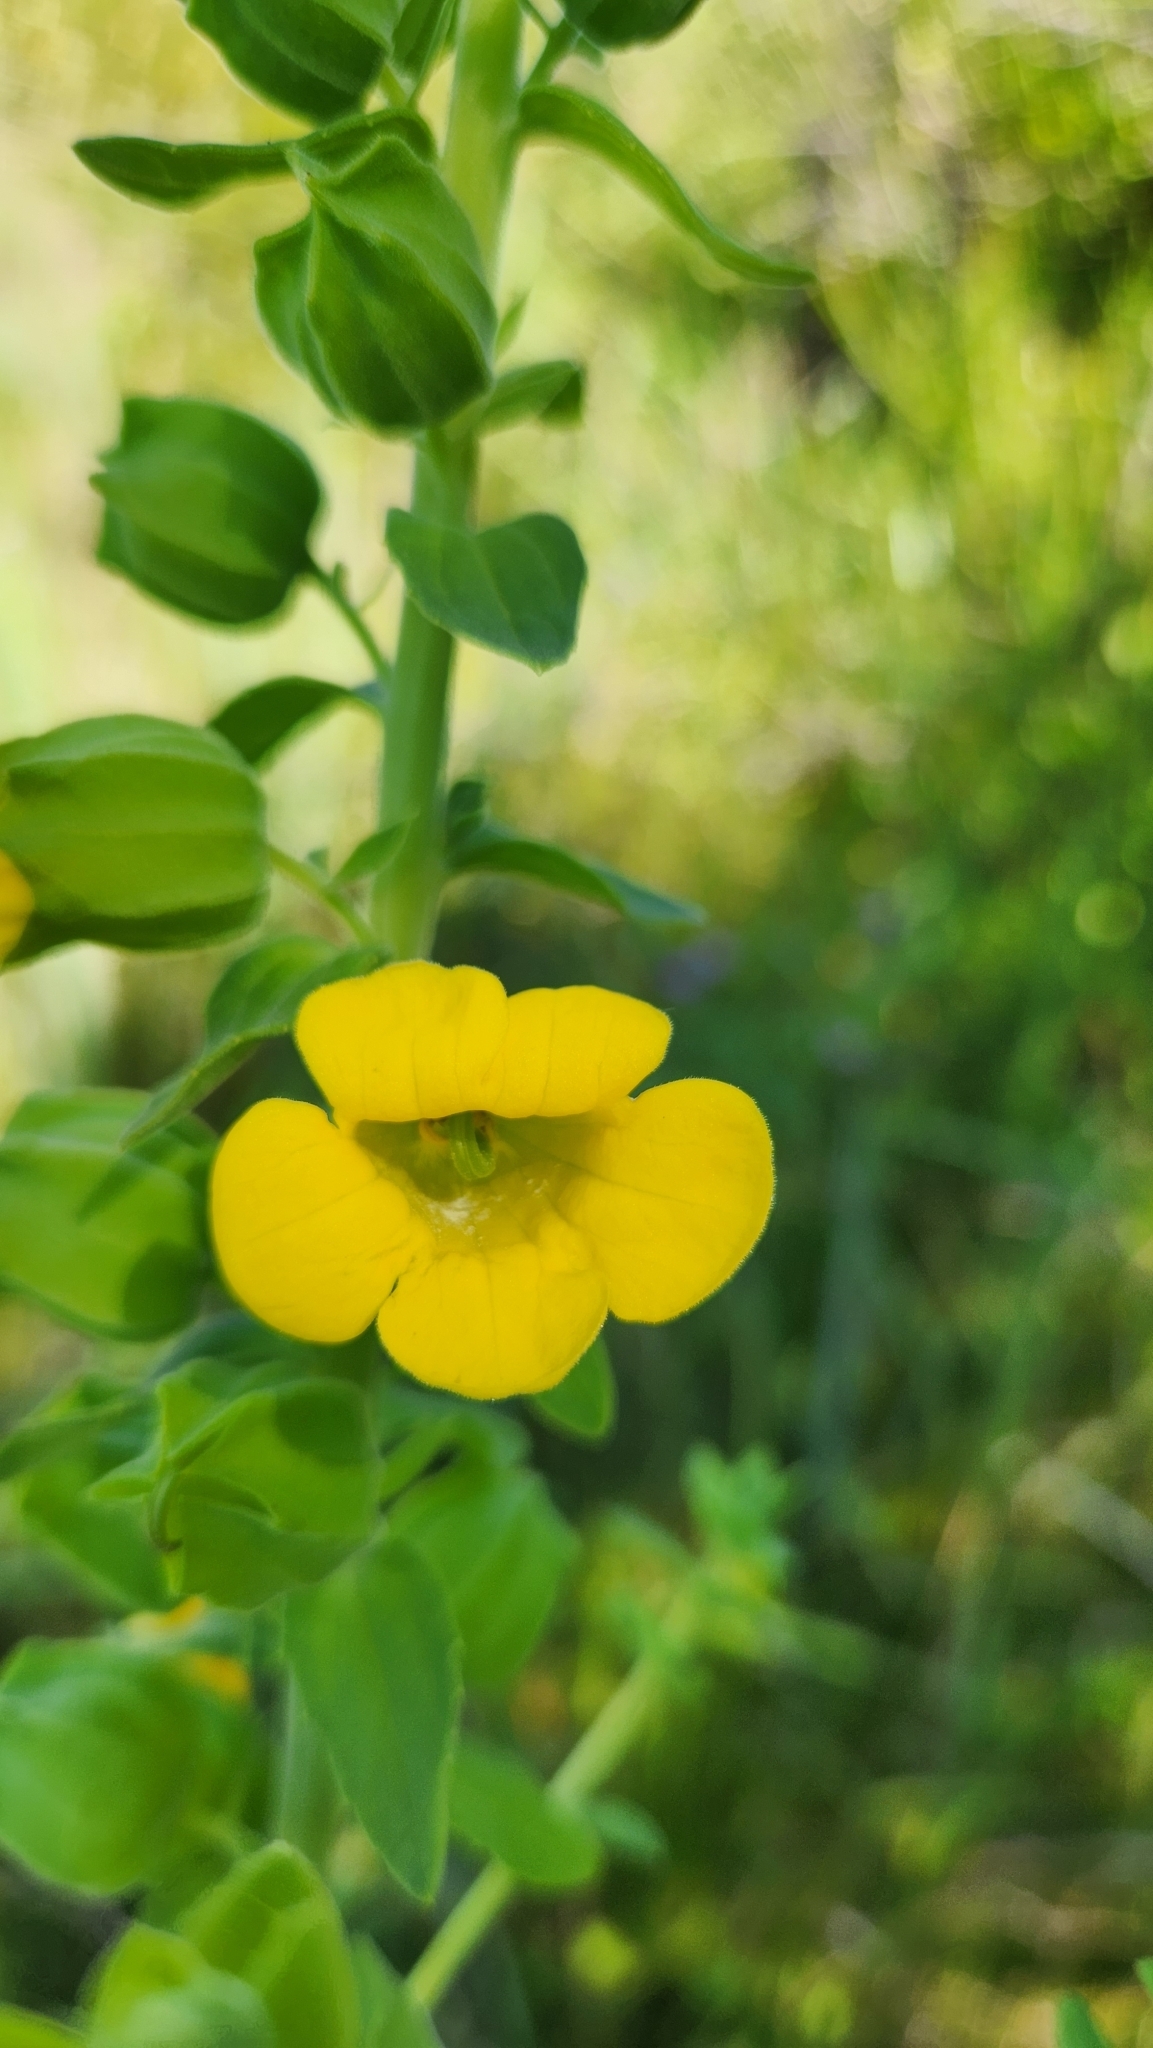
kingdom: Plantae
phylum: Tracheophyta
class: Magnoliopsida
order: Lamiales
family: Orobanchaceae
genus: Melasma
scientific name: Melasma rhinanthoides
